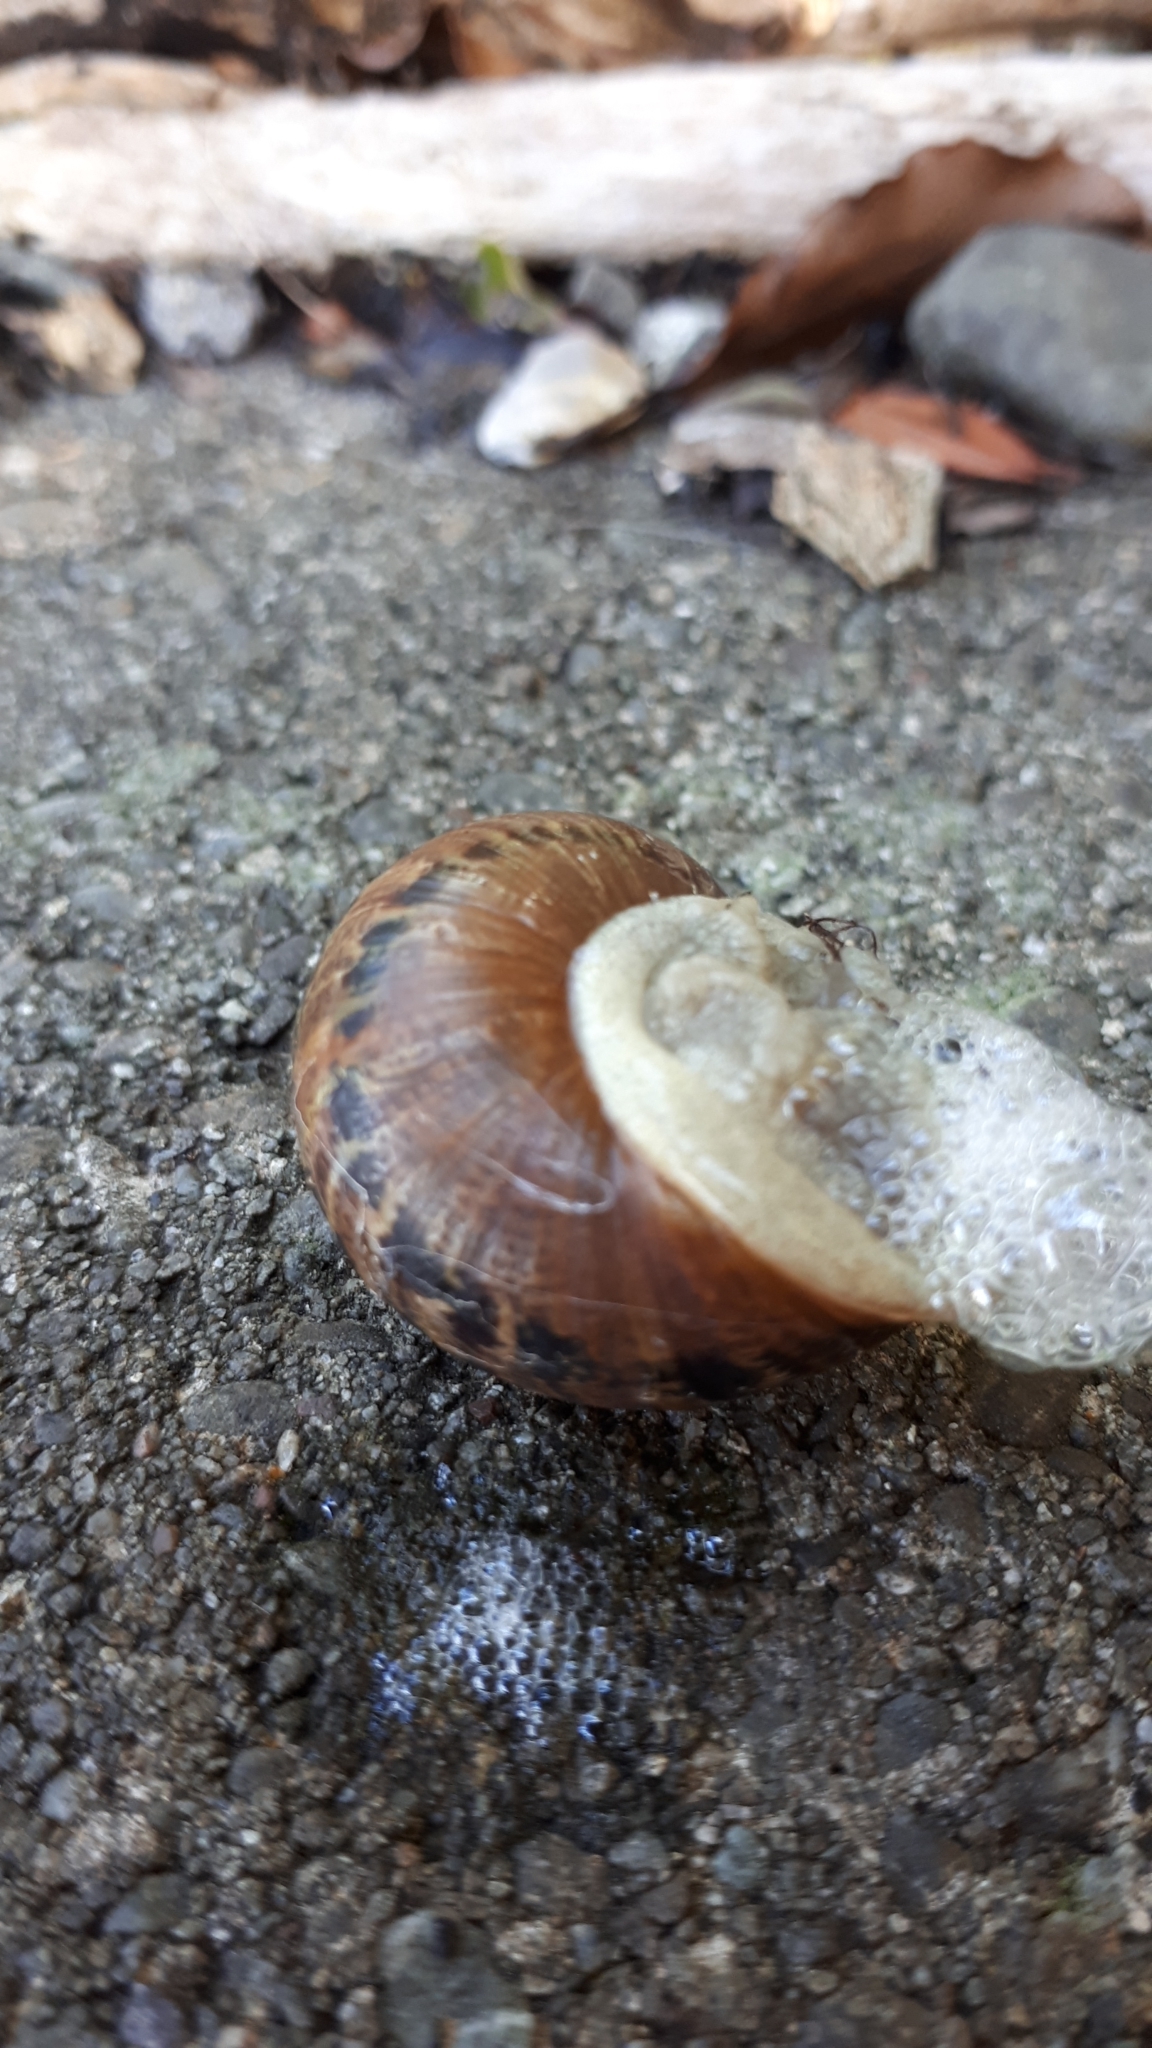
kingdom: Animalia
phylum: Mollusca
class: Gastropoda
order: Stylommatophora
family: Helicidae
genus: Cornu
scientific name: Cornu aspersum
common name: Brown garden snail
